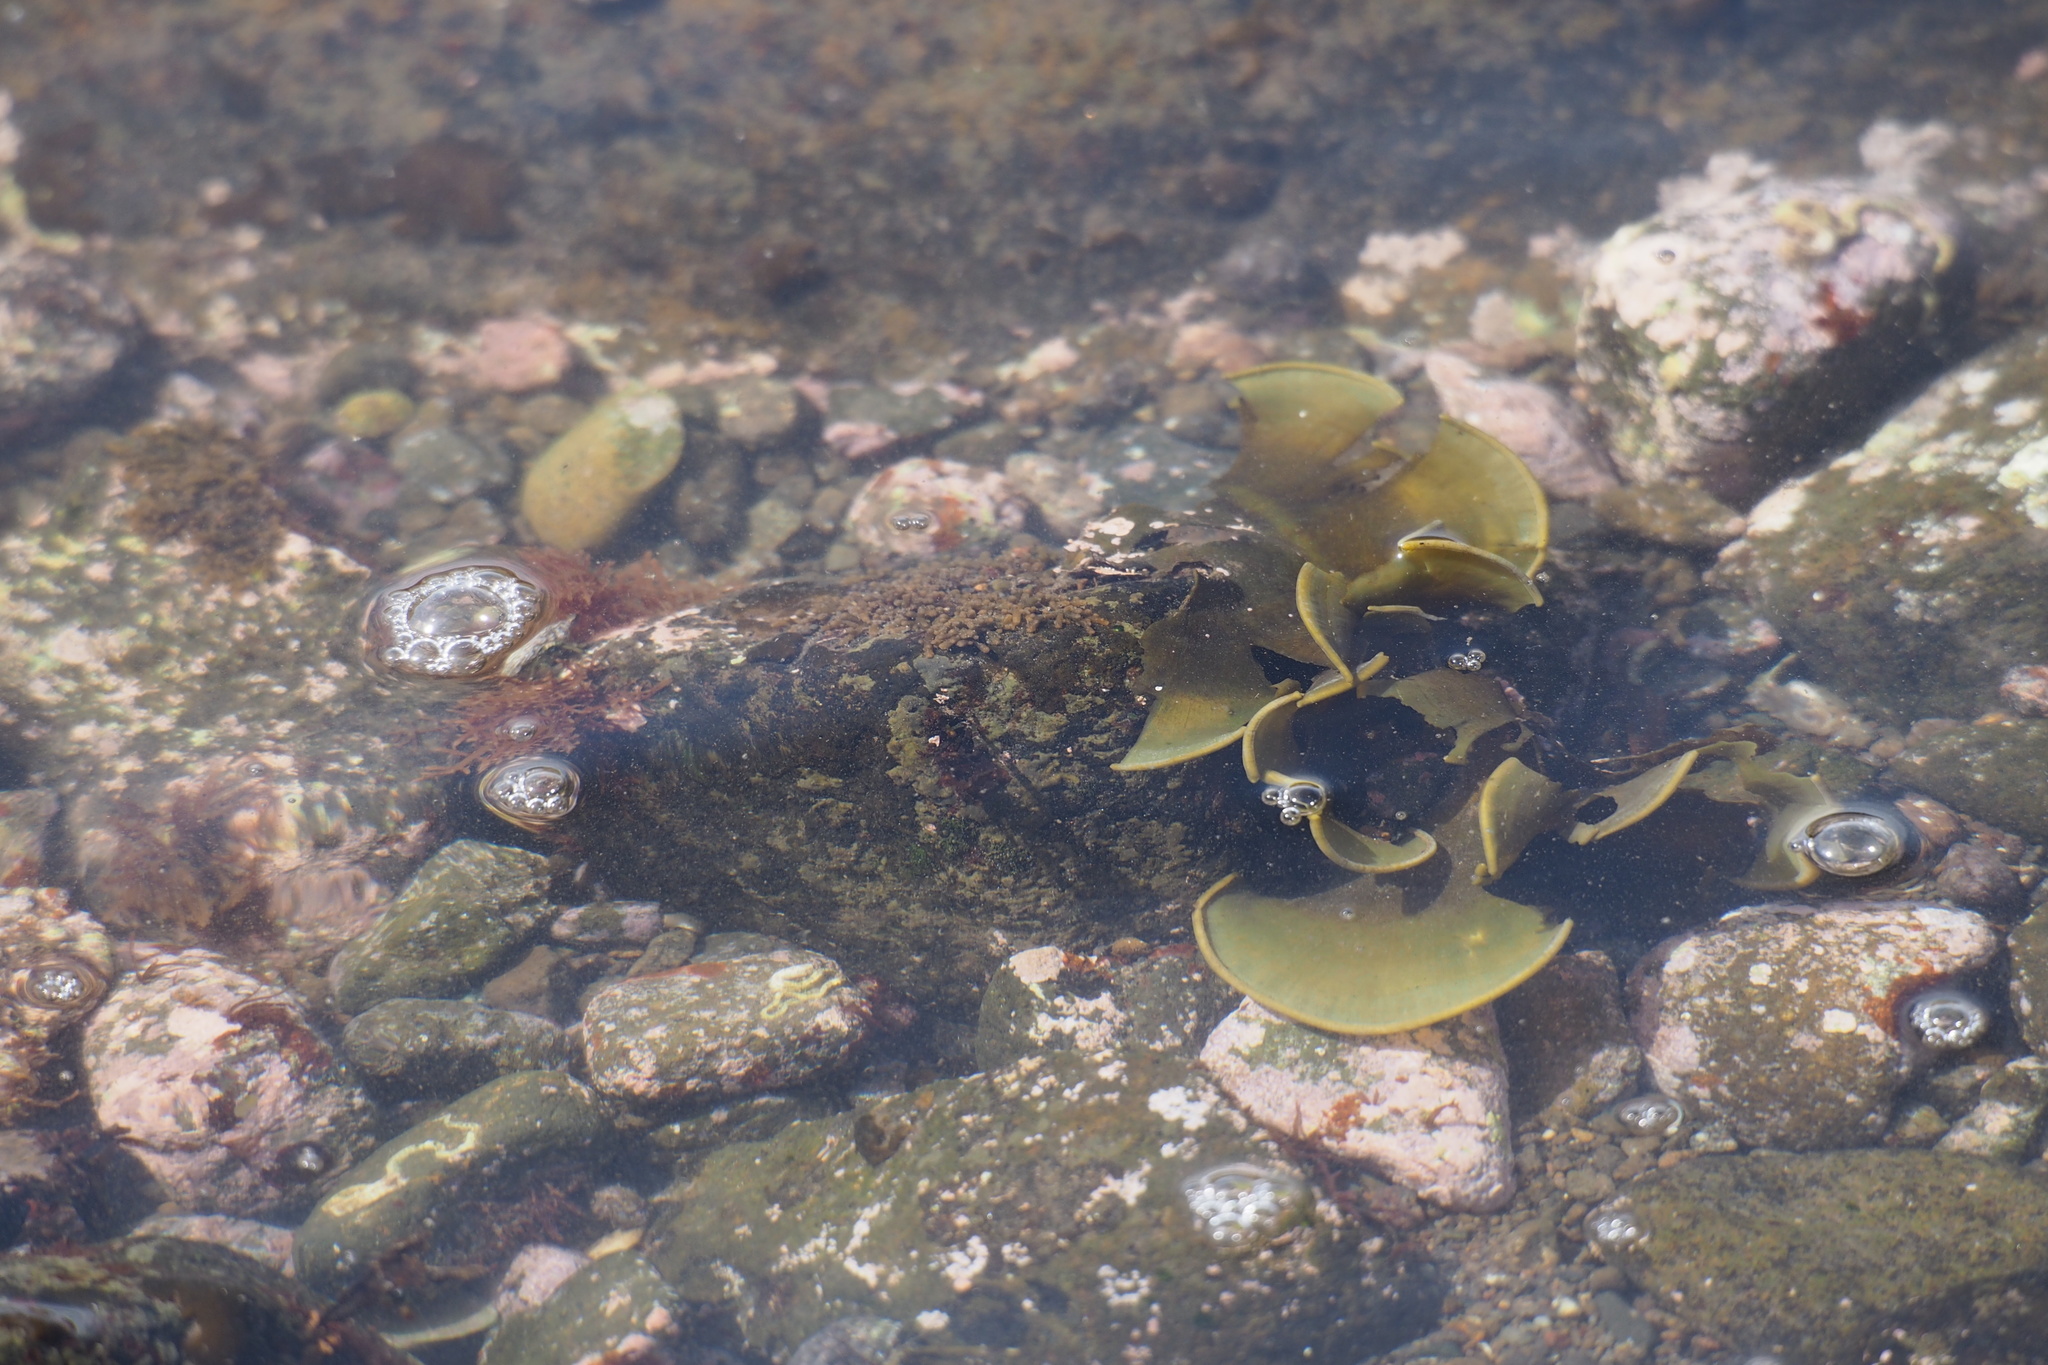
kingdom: Chromista
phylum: Ochrophyta
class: Phaeophyceae
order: Dictyotales
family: Dictyotaceae
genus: Padina
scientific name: Padina arborescens
